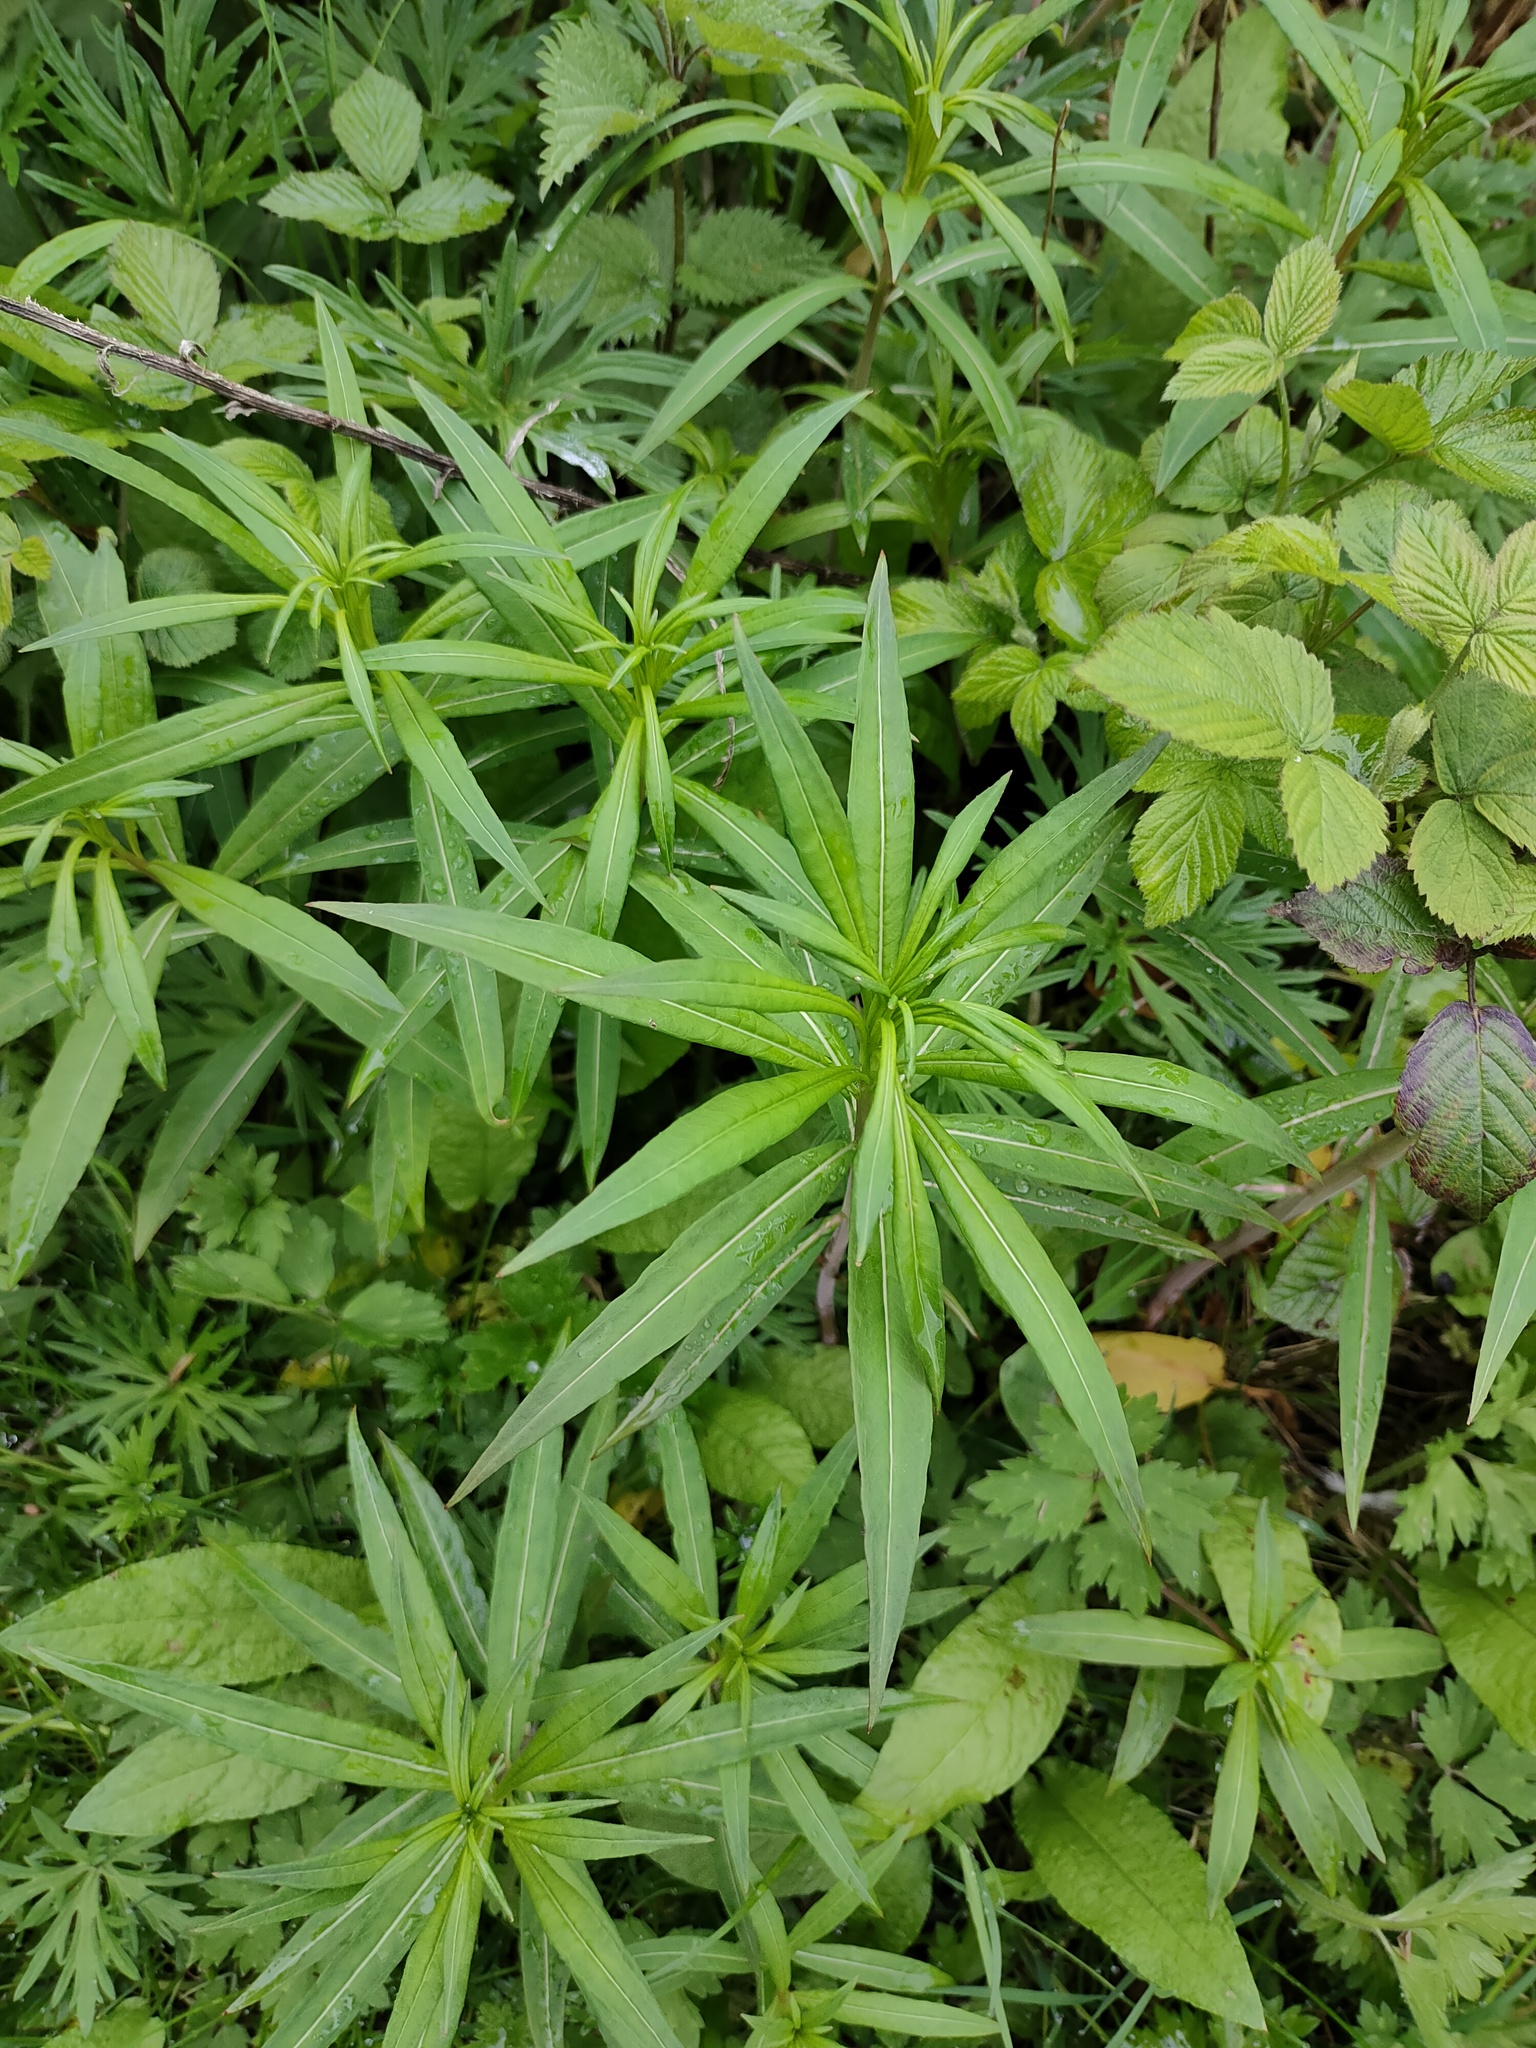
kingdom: Plantae
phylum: Tracheophyta
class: Magnoliopsida
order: Myrtales
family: Onagraceae
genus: Chamaenerion
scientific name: Chamaenerion angustifolium
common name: Fireweed
